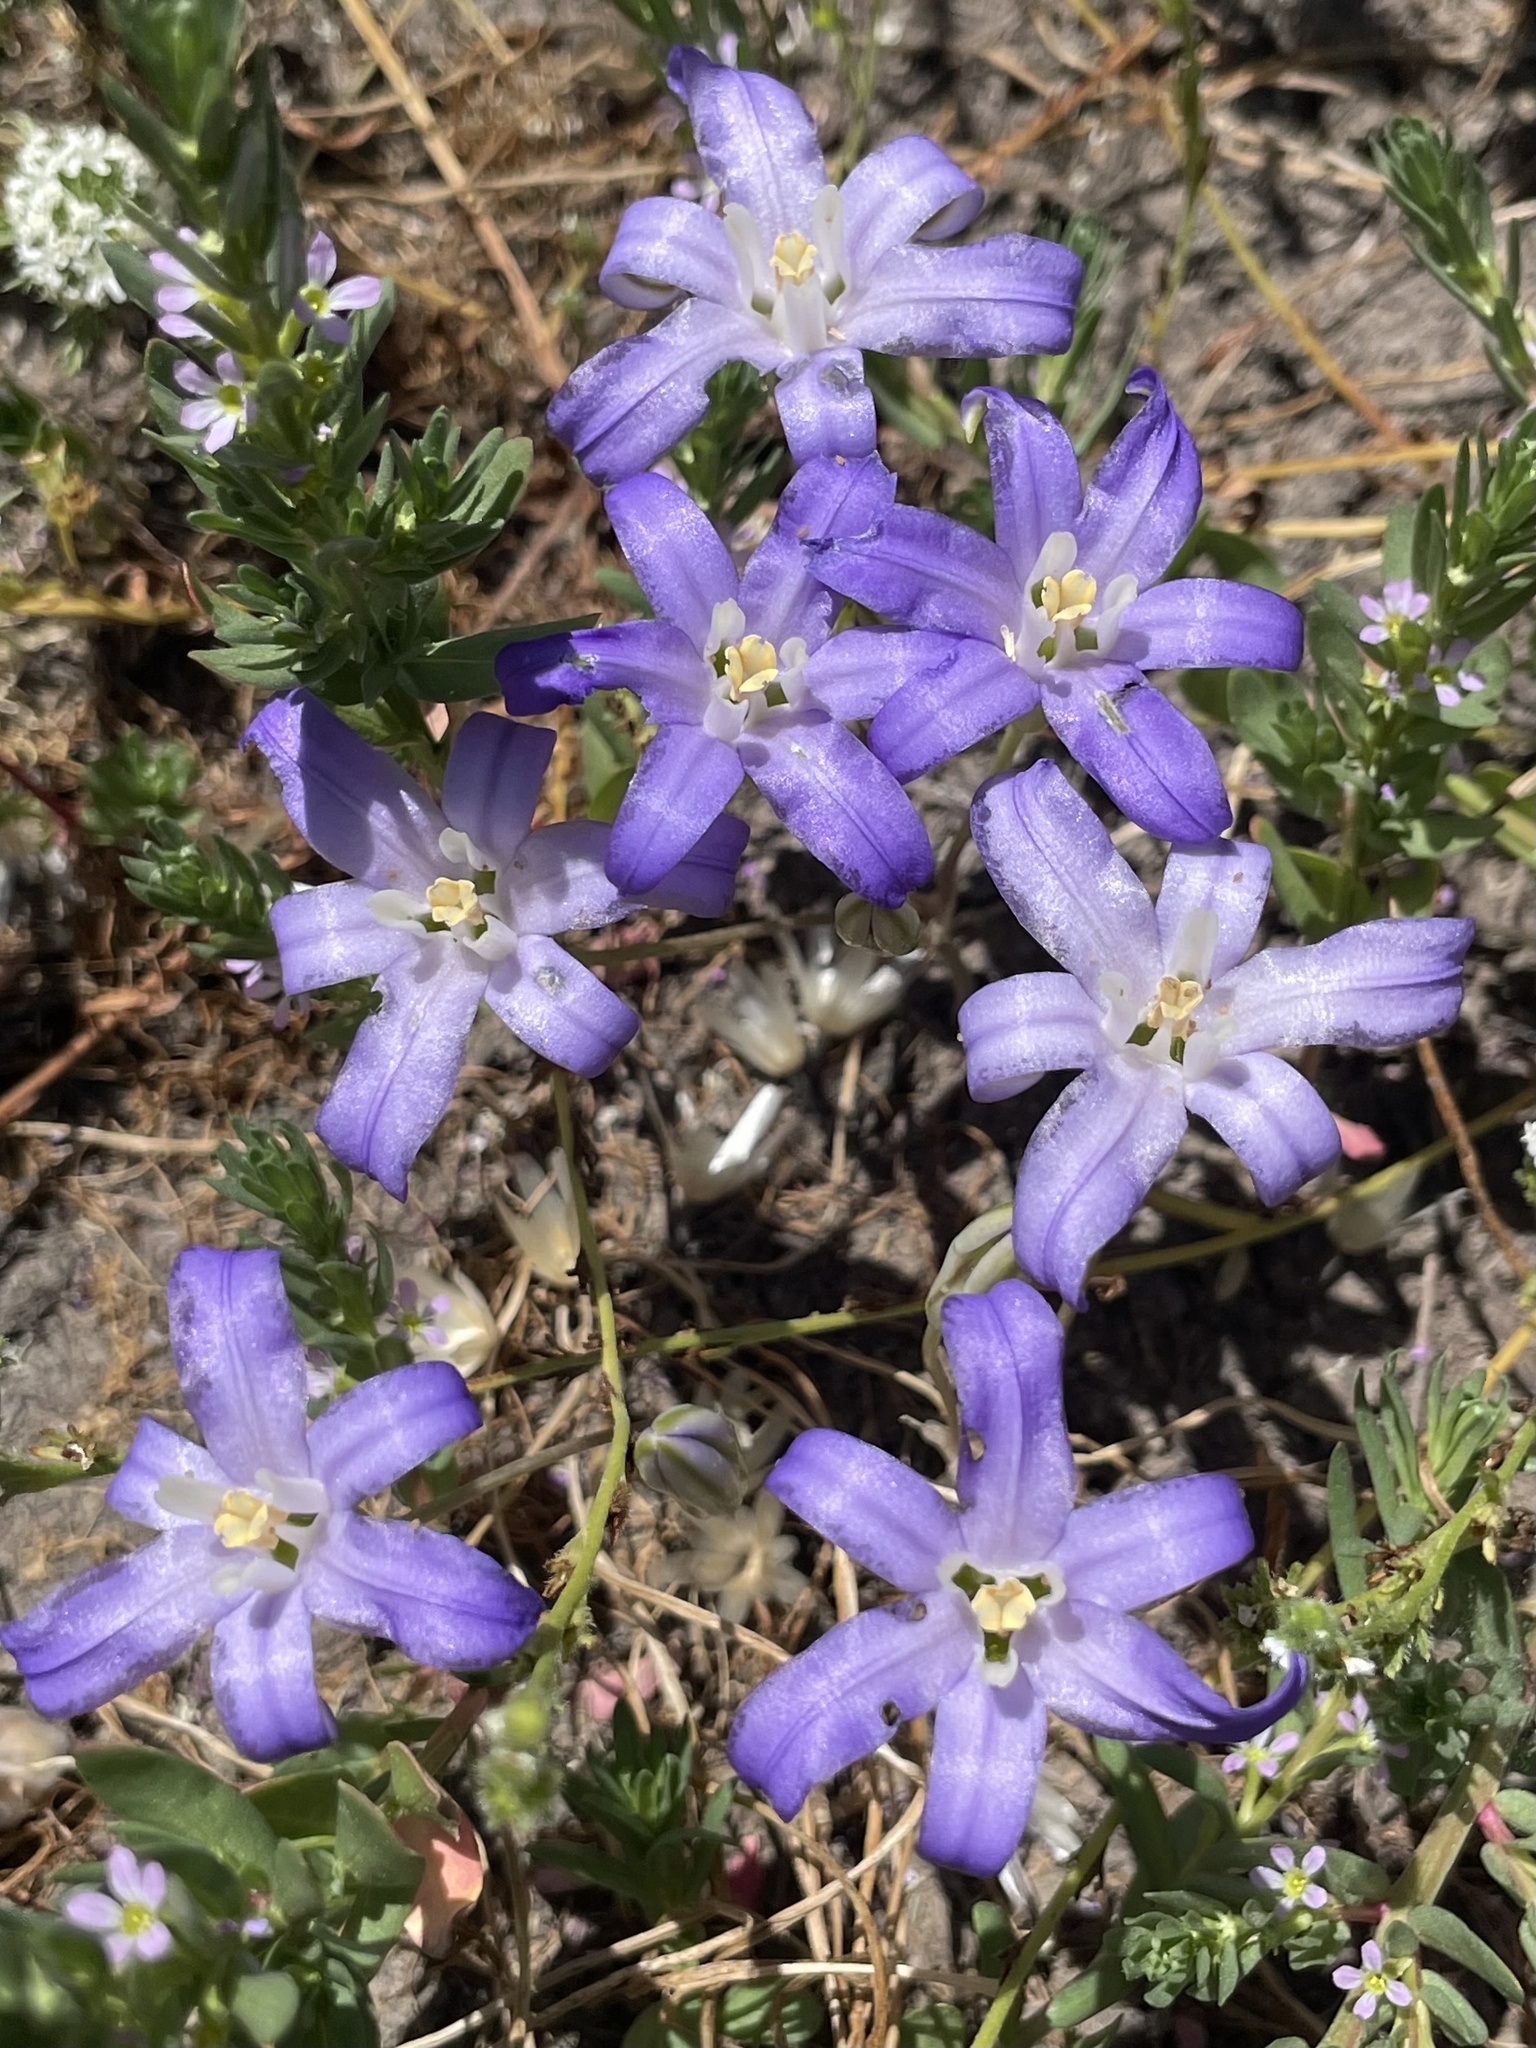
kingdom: Plantae
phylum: Tracheophyta
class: Liliopsida
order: Asparagales
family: Asparagaceae
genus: Brodiaea
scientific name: Brodiaea terrestris
